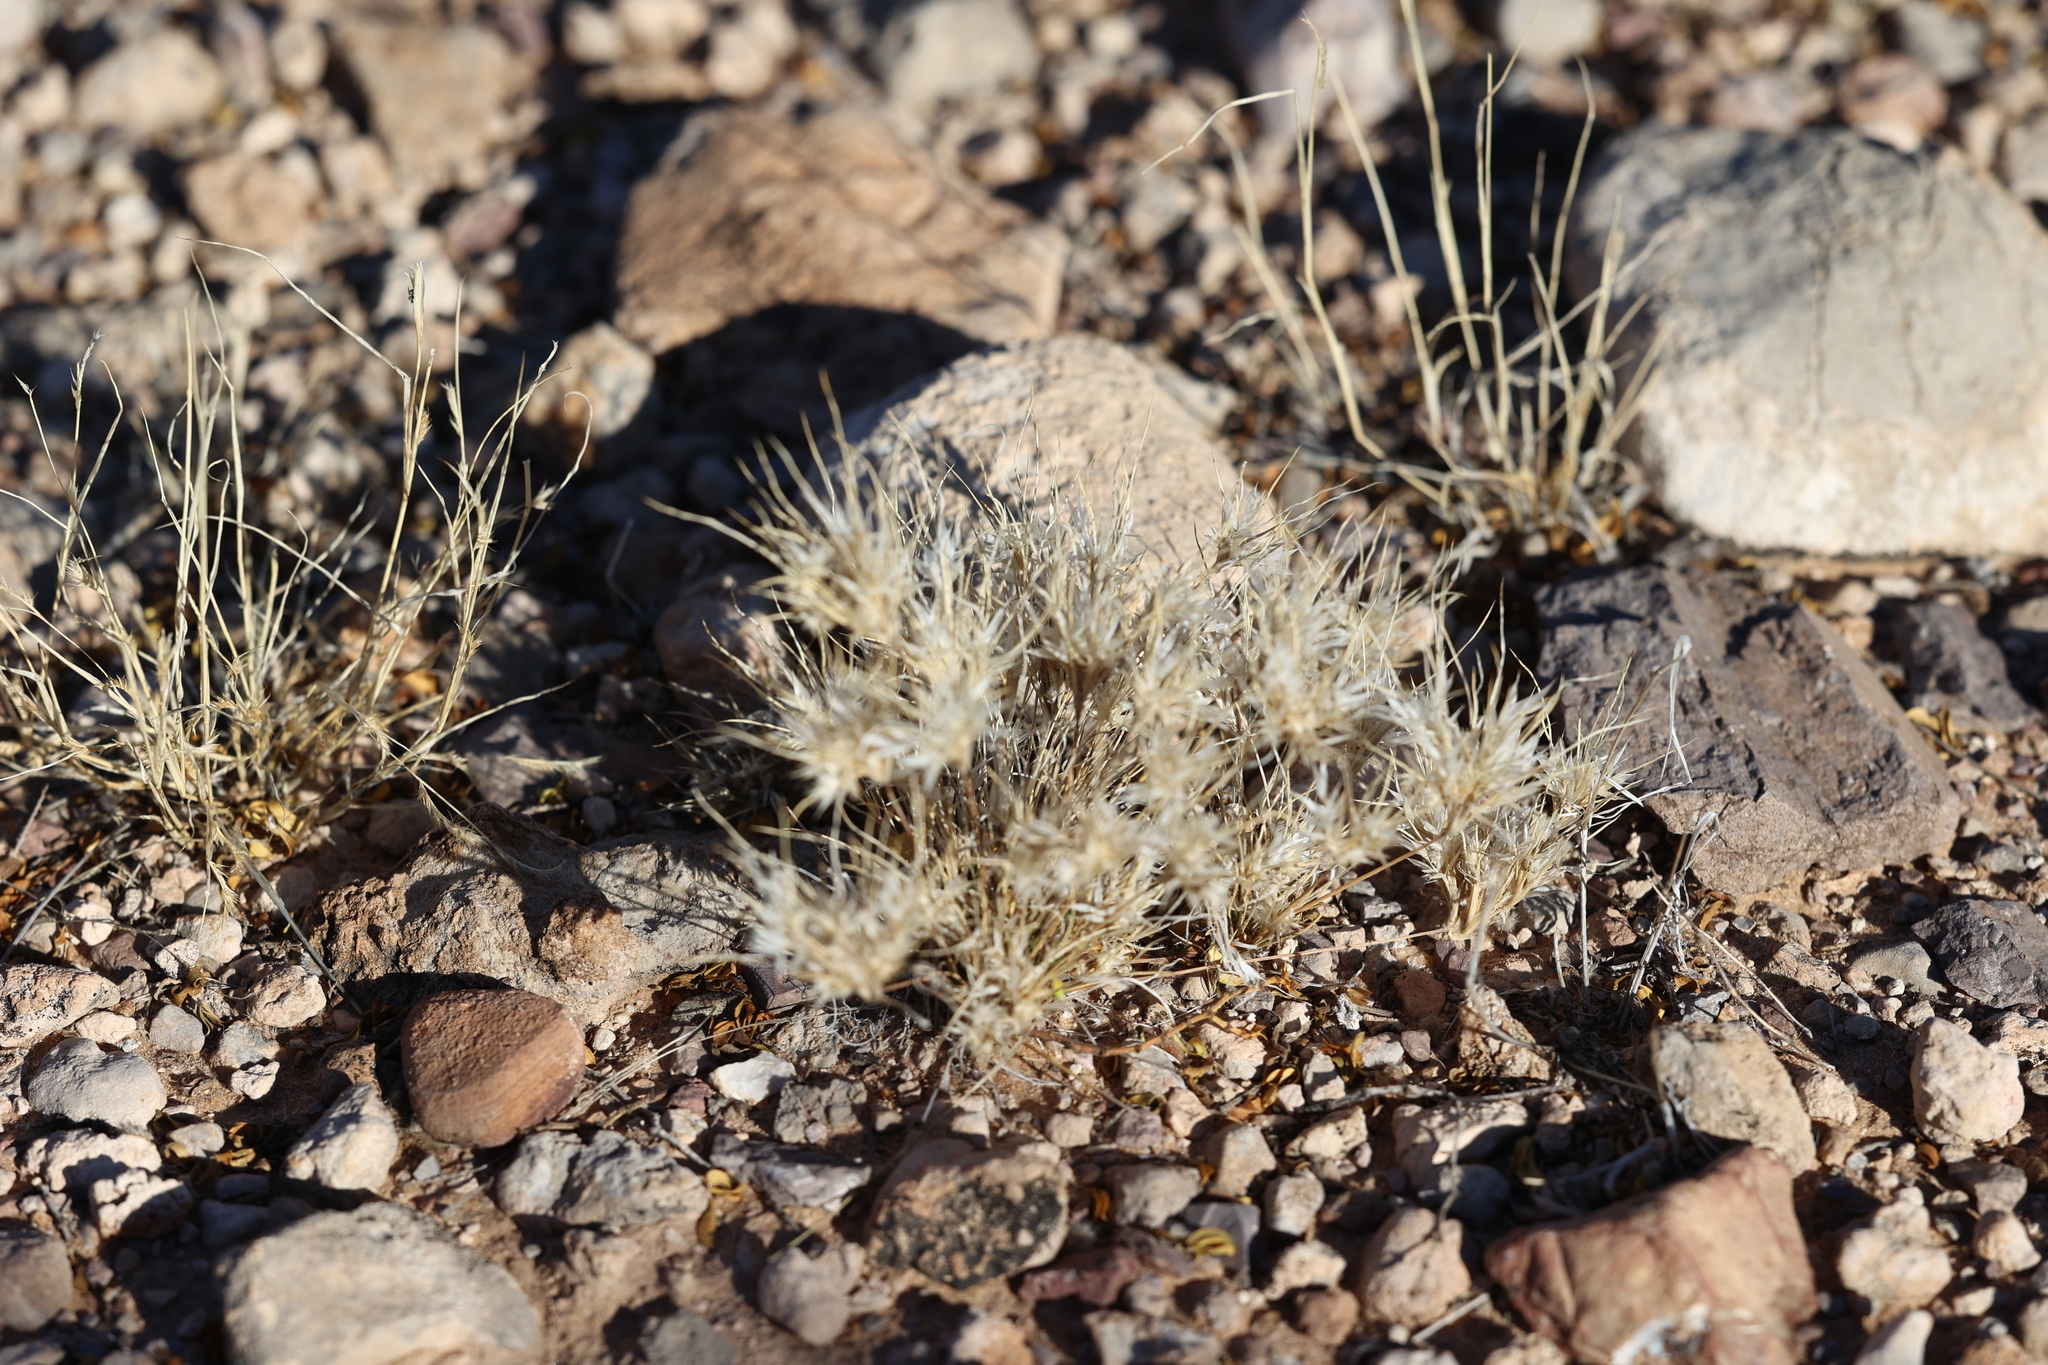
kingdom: Plantae
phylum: Tracheophyta
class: Liliopsida
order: Poales
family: Poaceae
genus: Dasyochloa
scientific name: Dasyochloa pulchella
